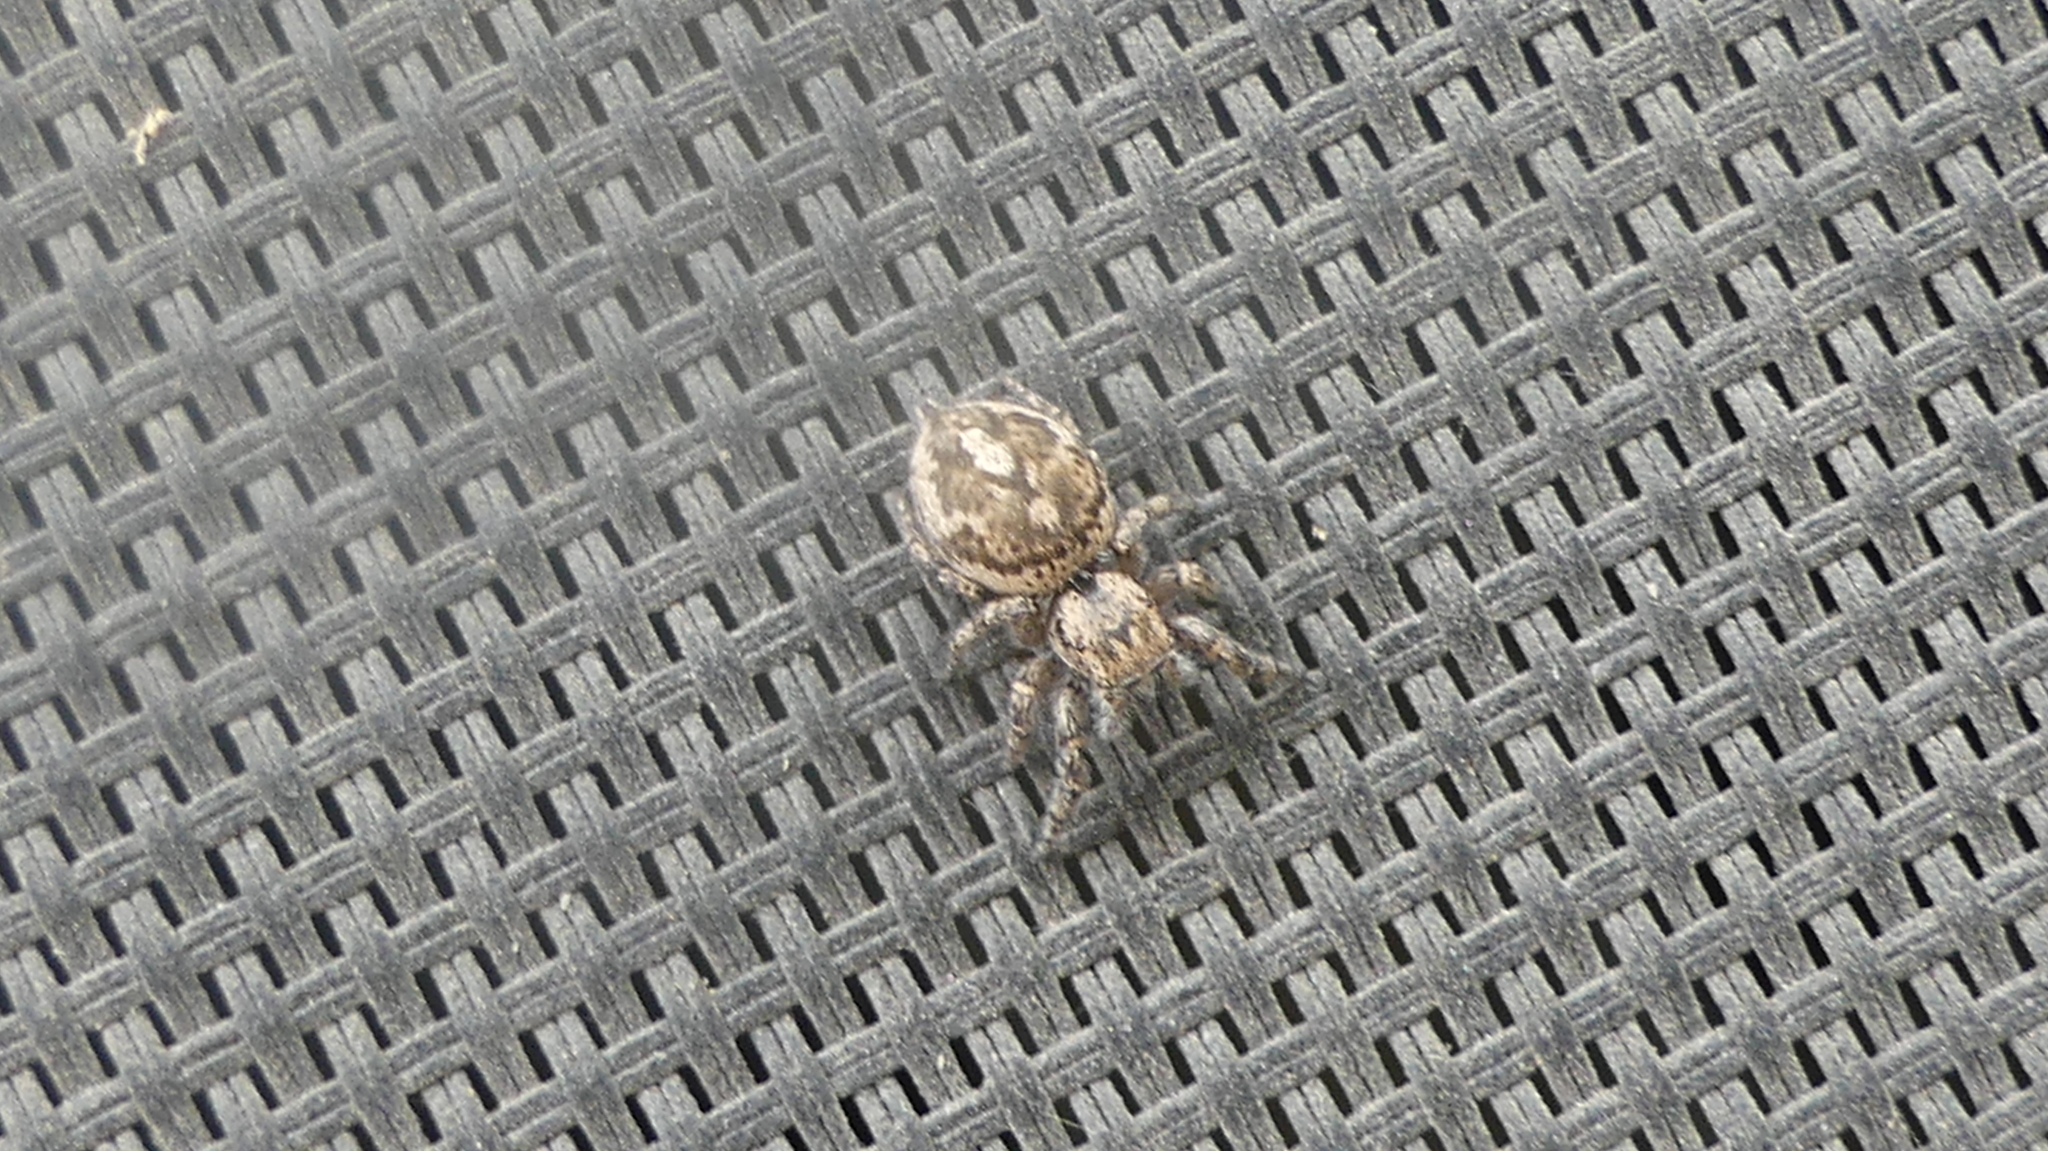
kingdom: Animalia
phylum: Arthropoda
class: Arachnida
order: Araneae
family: Salticidae
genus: Habronattus
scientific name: Habronattus fallax
